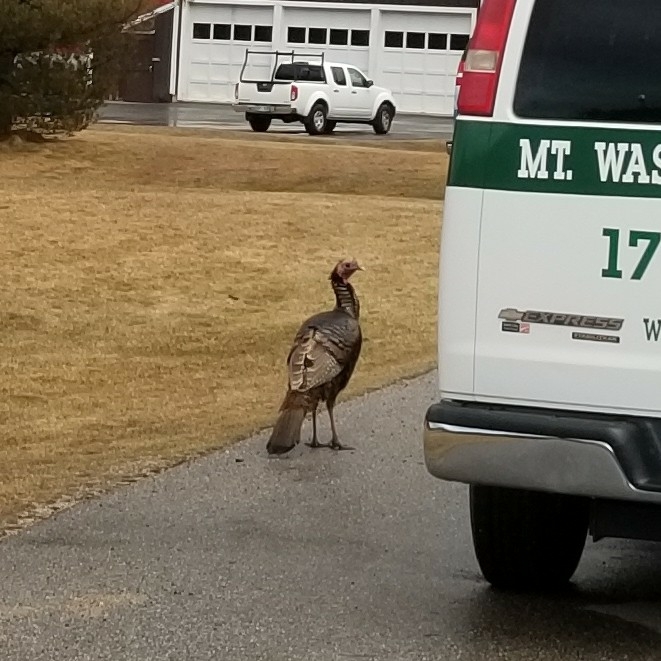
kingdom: Animalia
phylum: Chordata
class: Aves
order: Galliformes
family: Phasianidae
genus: Meleagris
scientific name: Meleagris gallopavo
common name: Wild turkey
